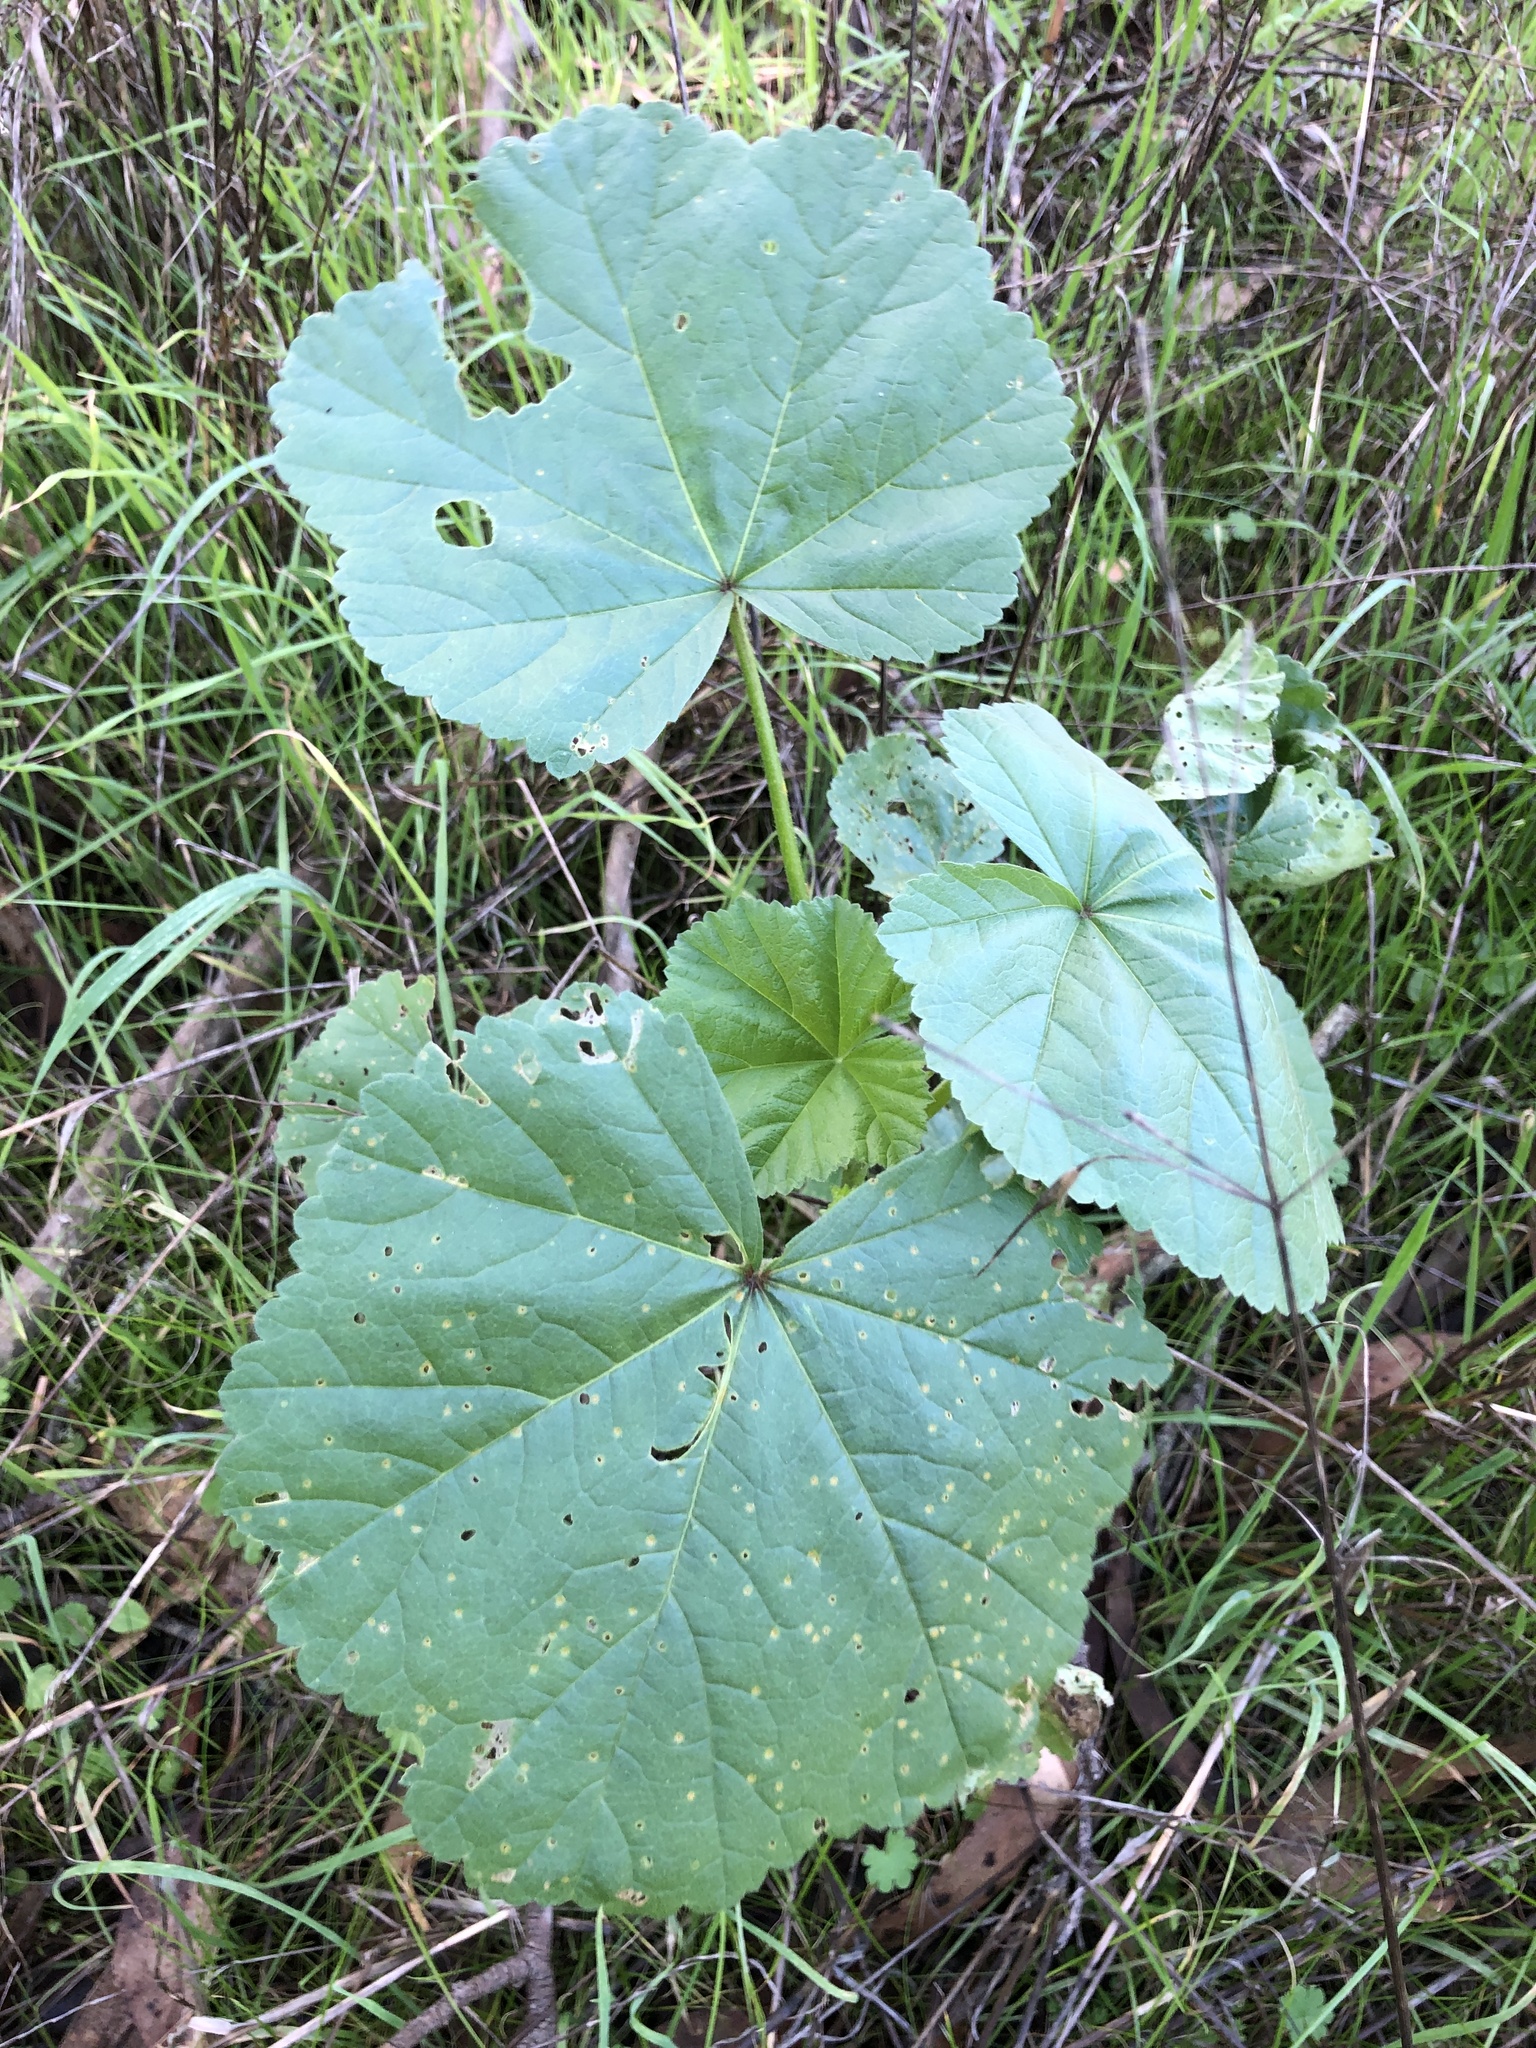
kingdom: Fungi
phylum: Basidiomycota
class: Pucciniomycetes
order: Pucciniales
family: Pucciniaceae
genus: Puccinia
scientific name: Puccinia malvacearum
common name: Hollyhock rust
